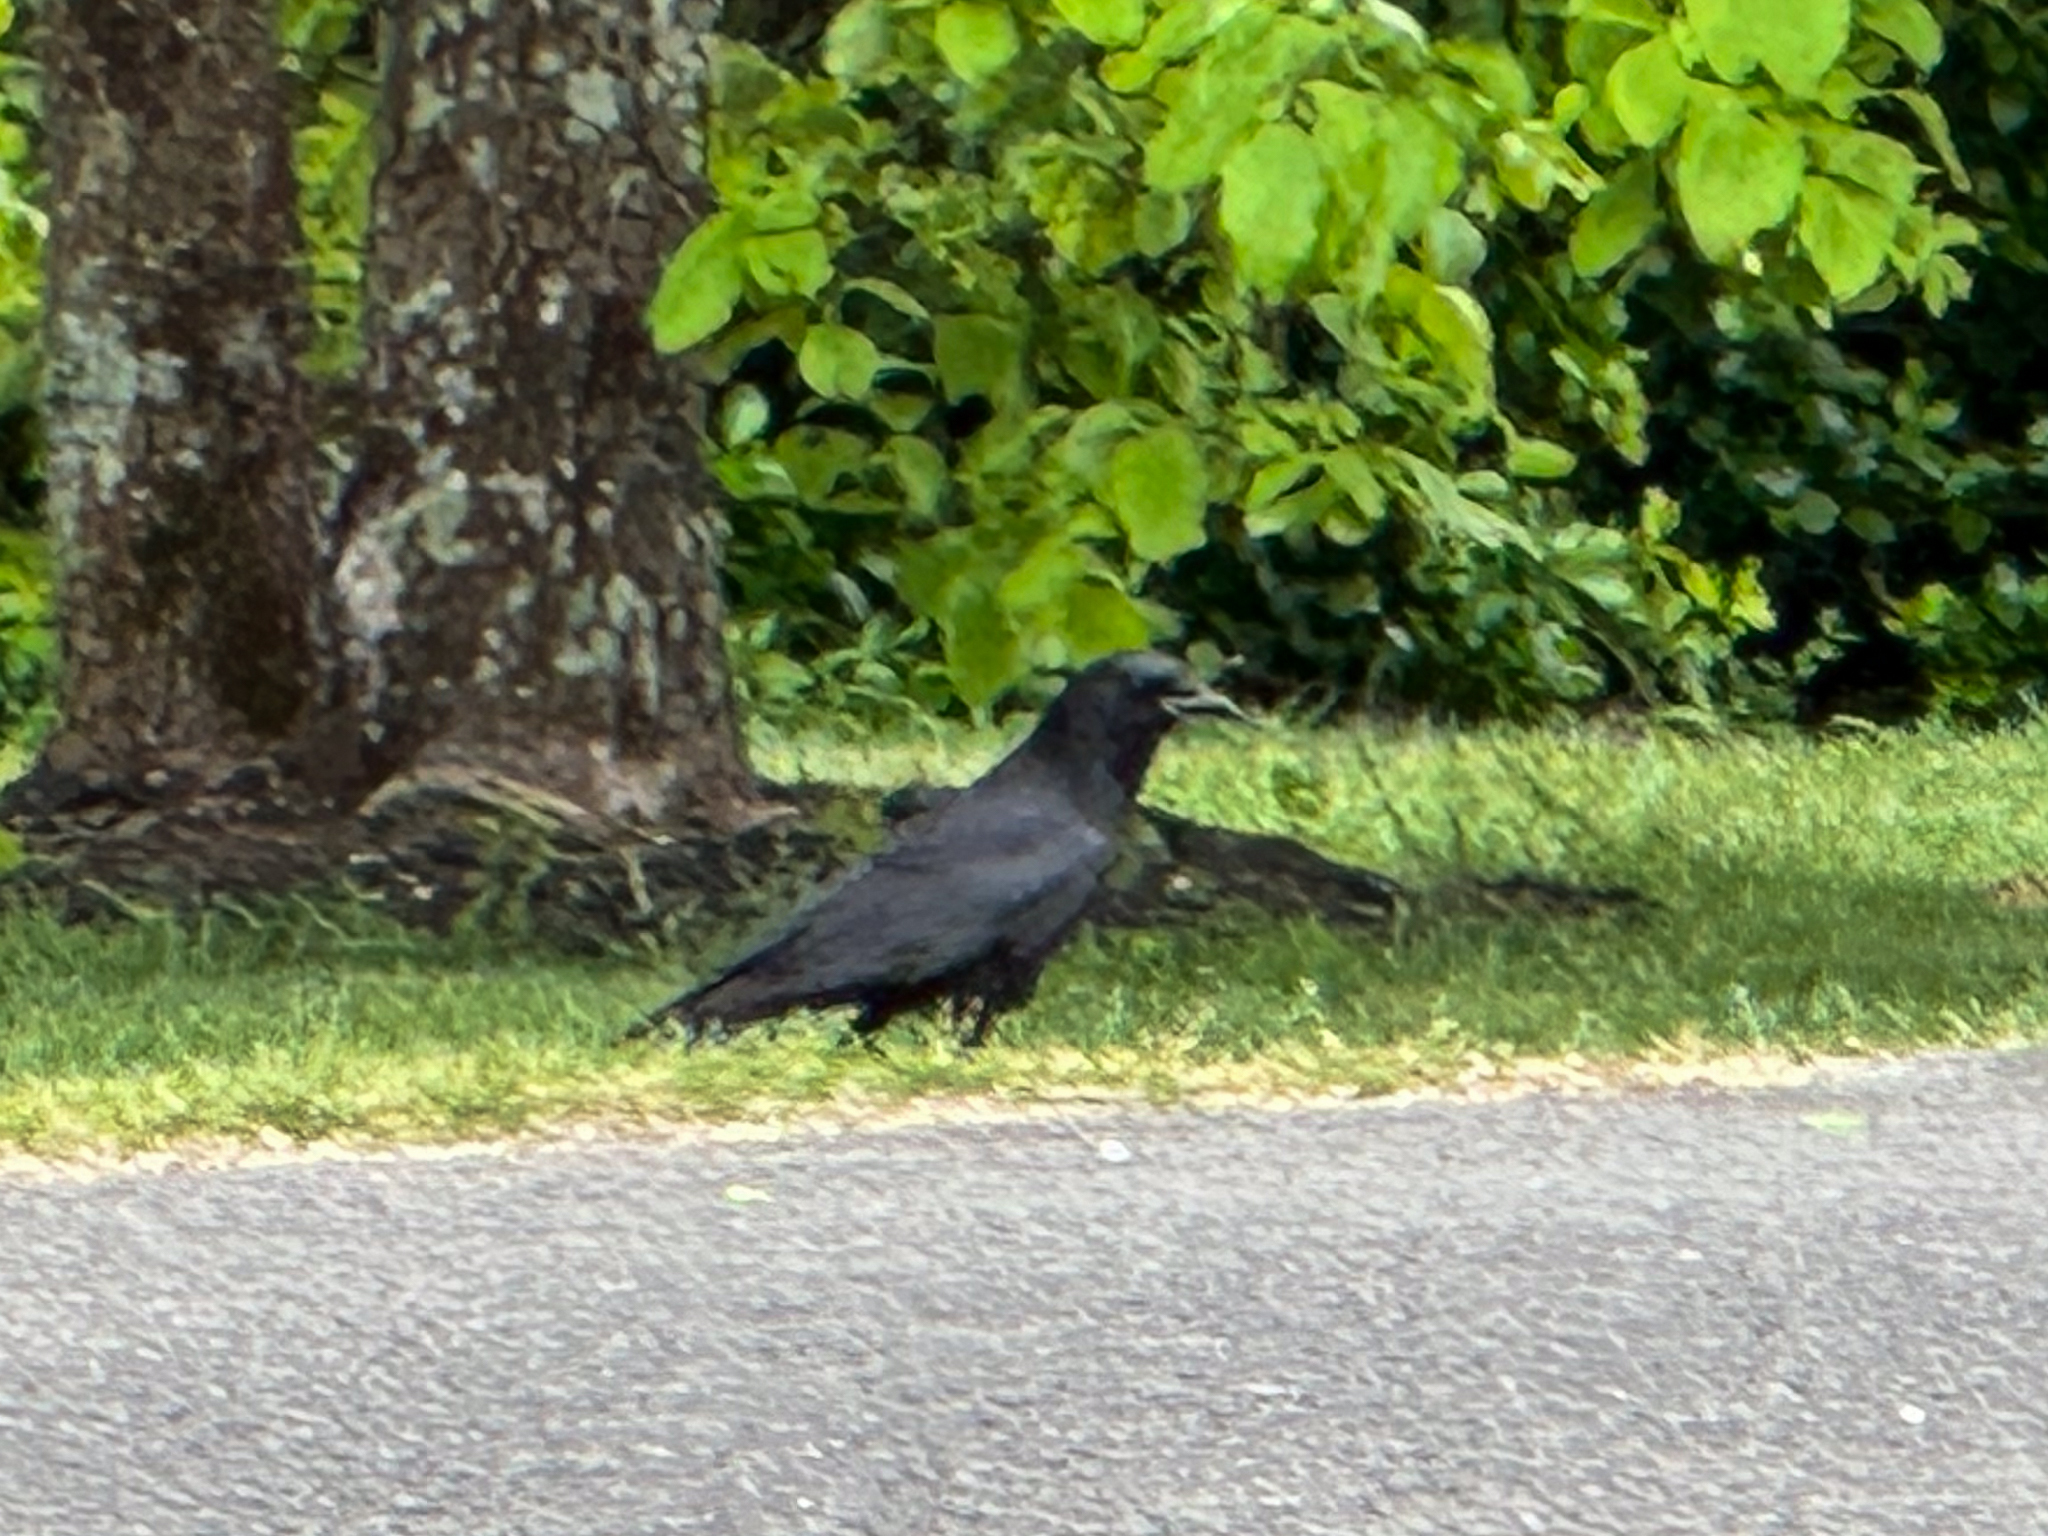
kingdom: Animalia
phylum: Chordata
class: Aves
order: Passeriformes
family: Corvidae
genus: Corvus
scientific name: Corvus brachyrhynchos
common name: American crow
